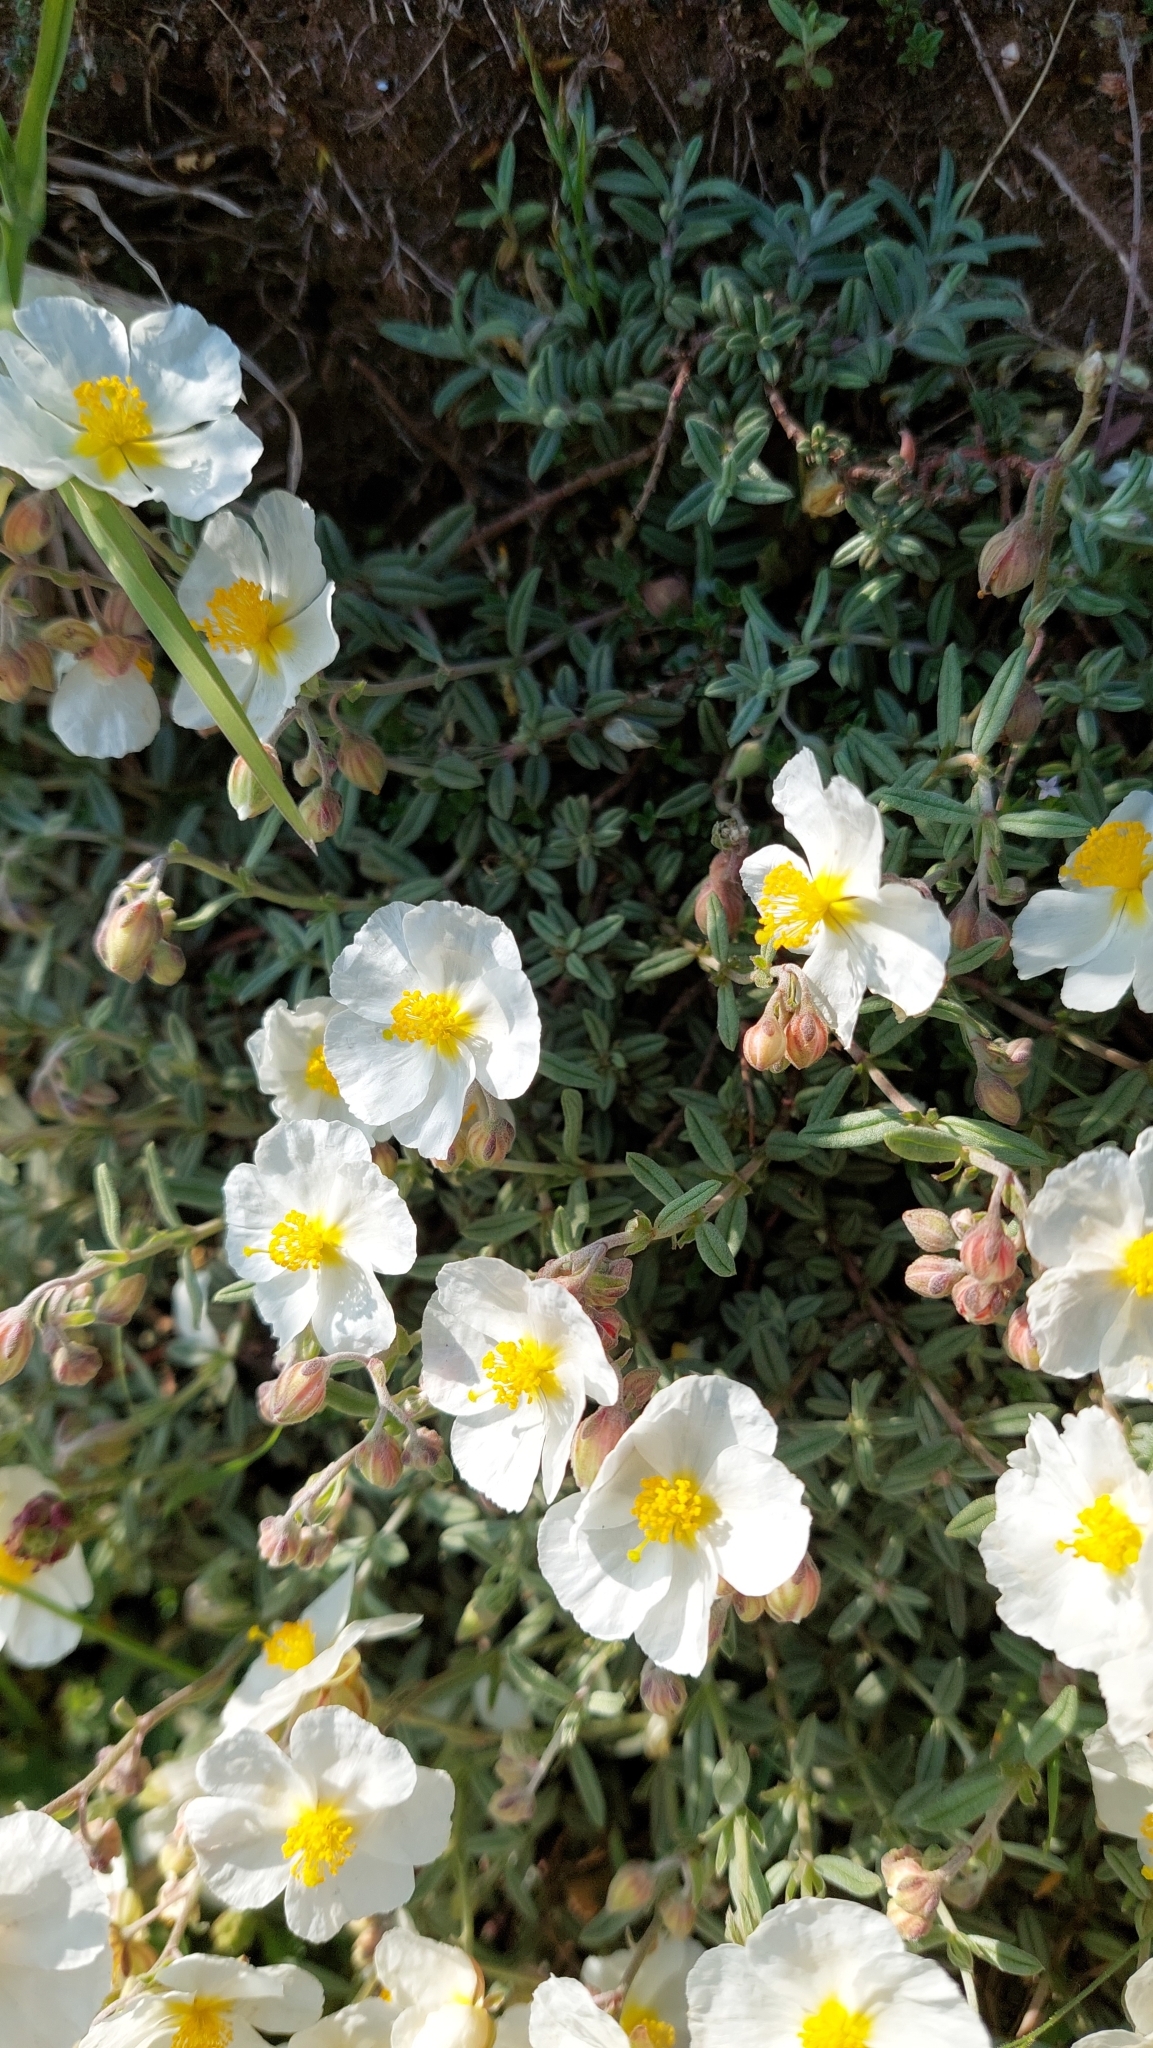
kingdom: Plantae
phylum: Tracheophyta
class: Magnoliopsida
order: Malvales
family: Cistaceae
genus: Helianthemum
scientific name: Helianthemum apenninum
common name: White rock-rose
